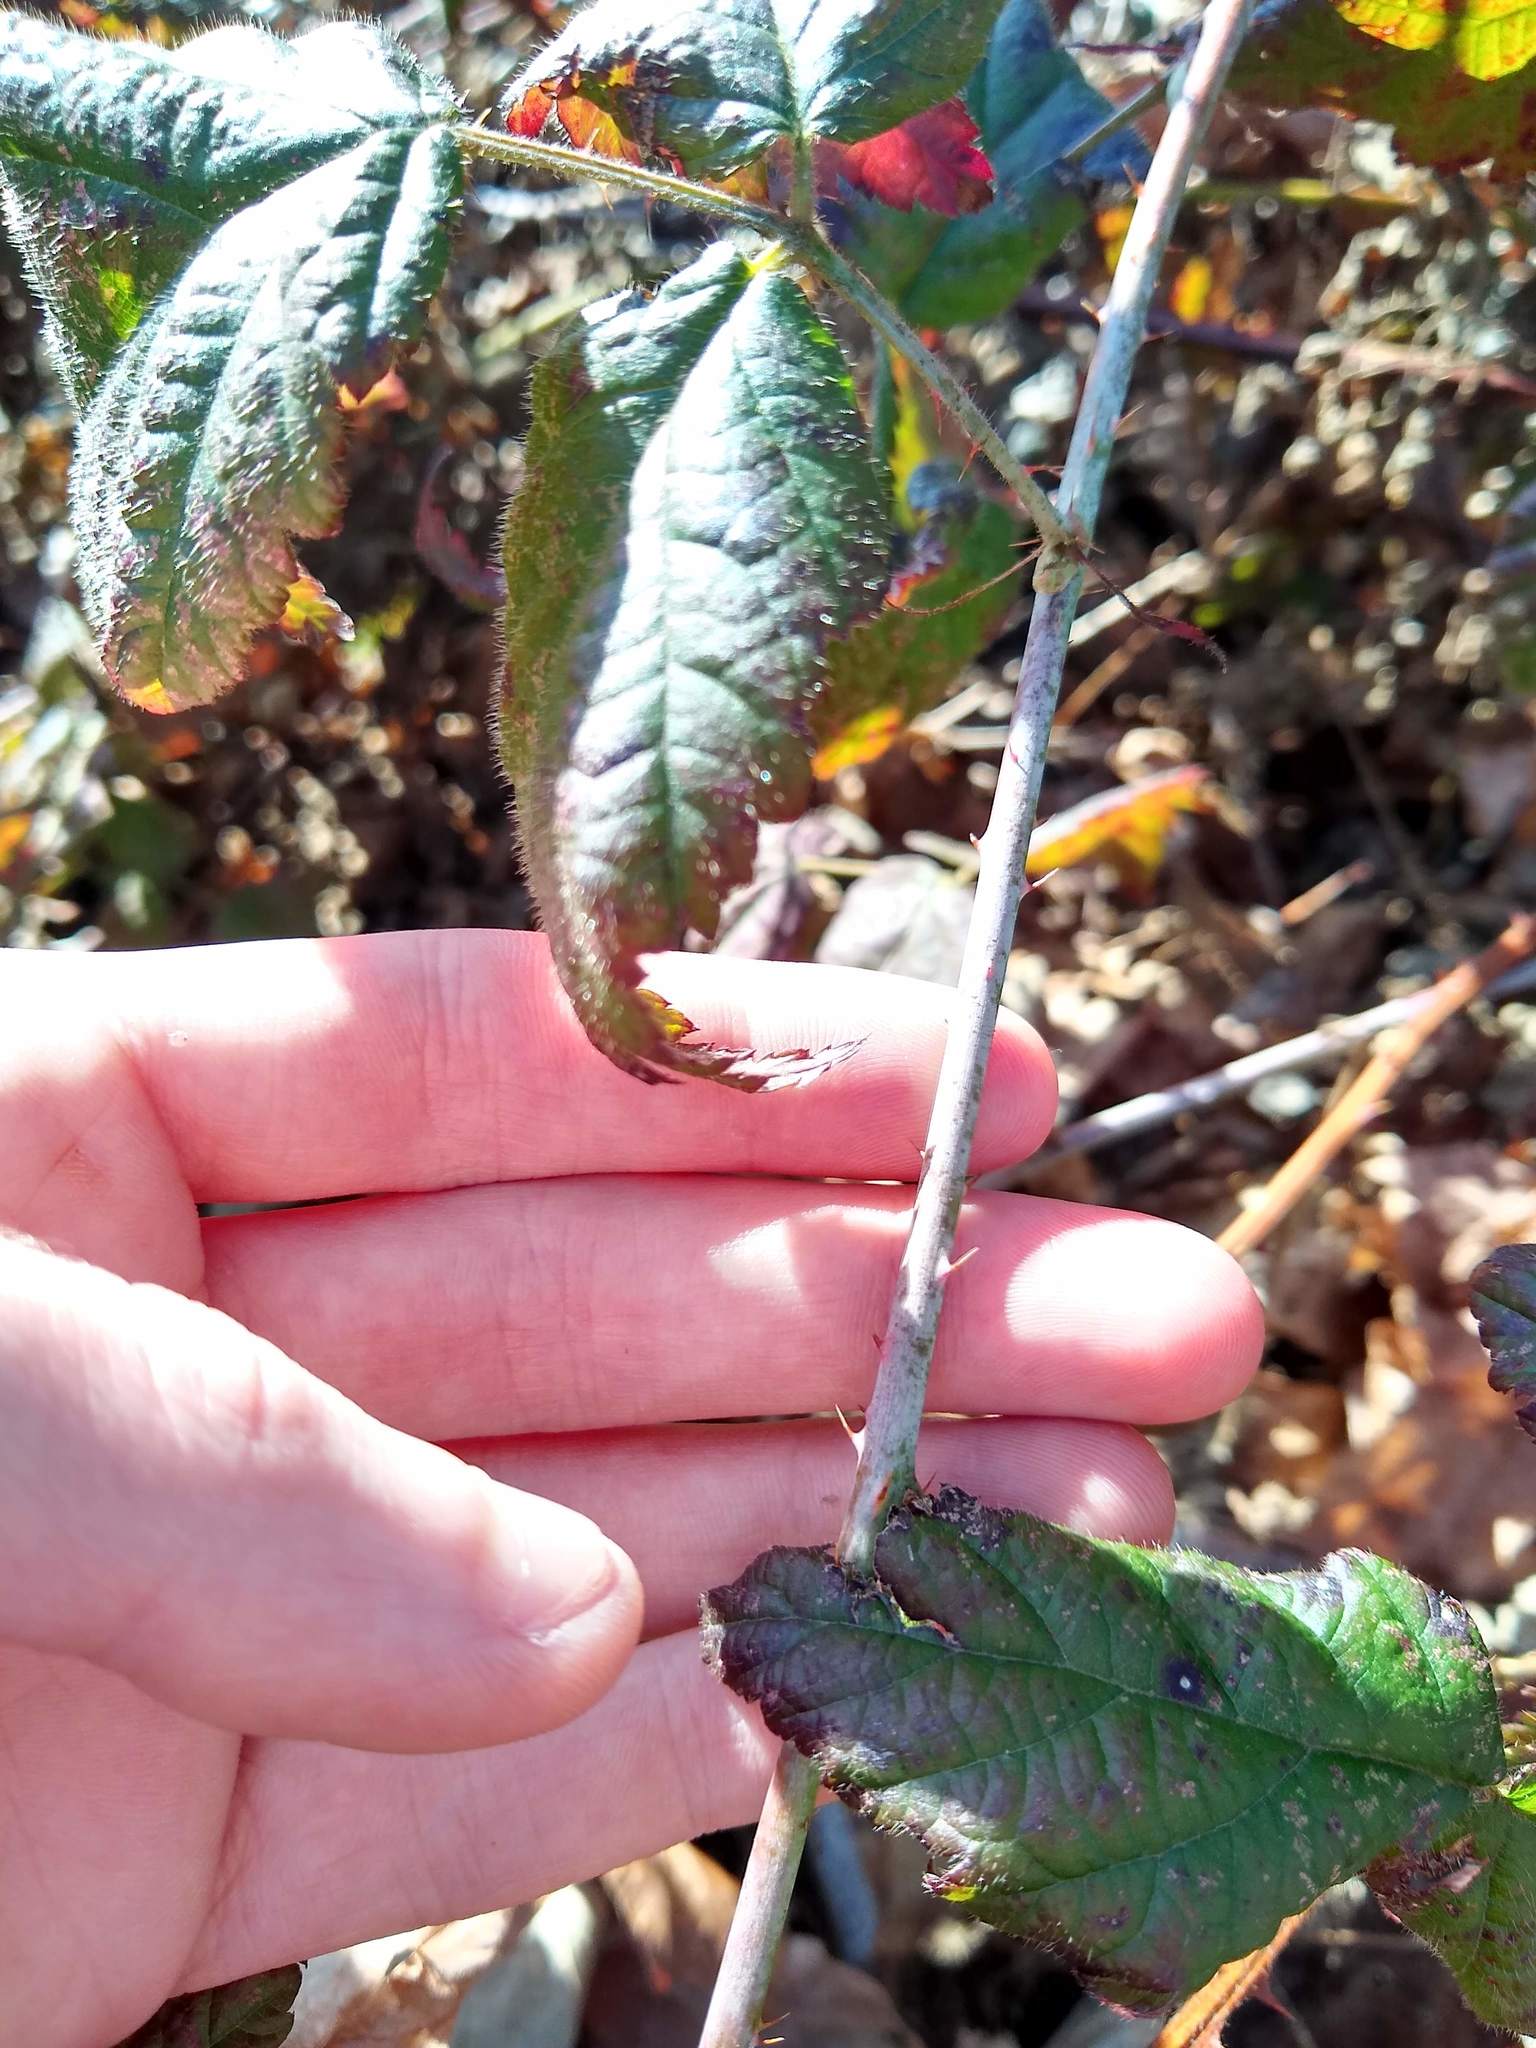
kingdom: Plantae
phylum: Tracheophyta
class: Magnoliopsida
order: Rosales
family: Rosaceae
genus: Rubus
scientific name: Rubus ursinus
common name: Pacific blackberry
